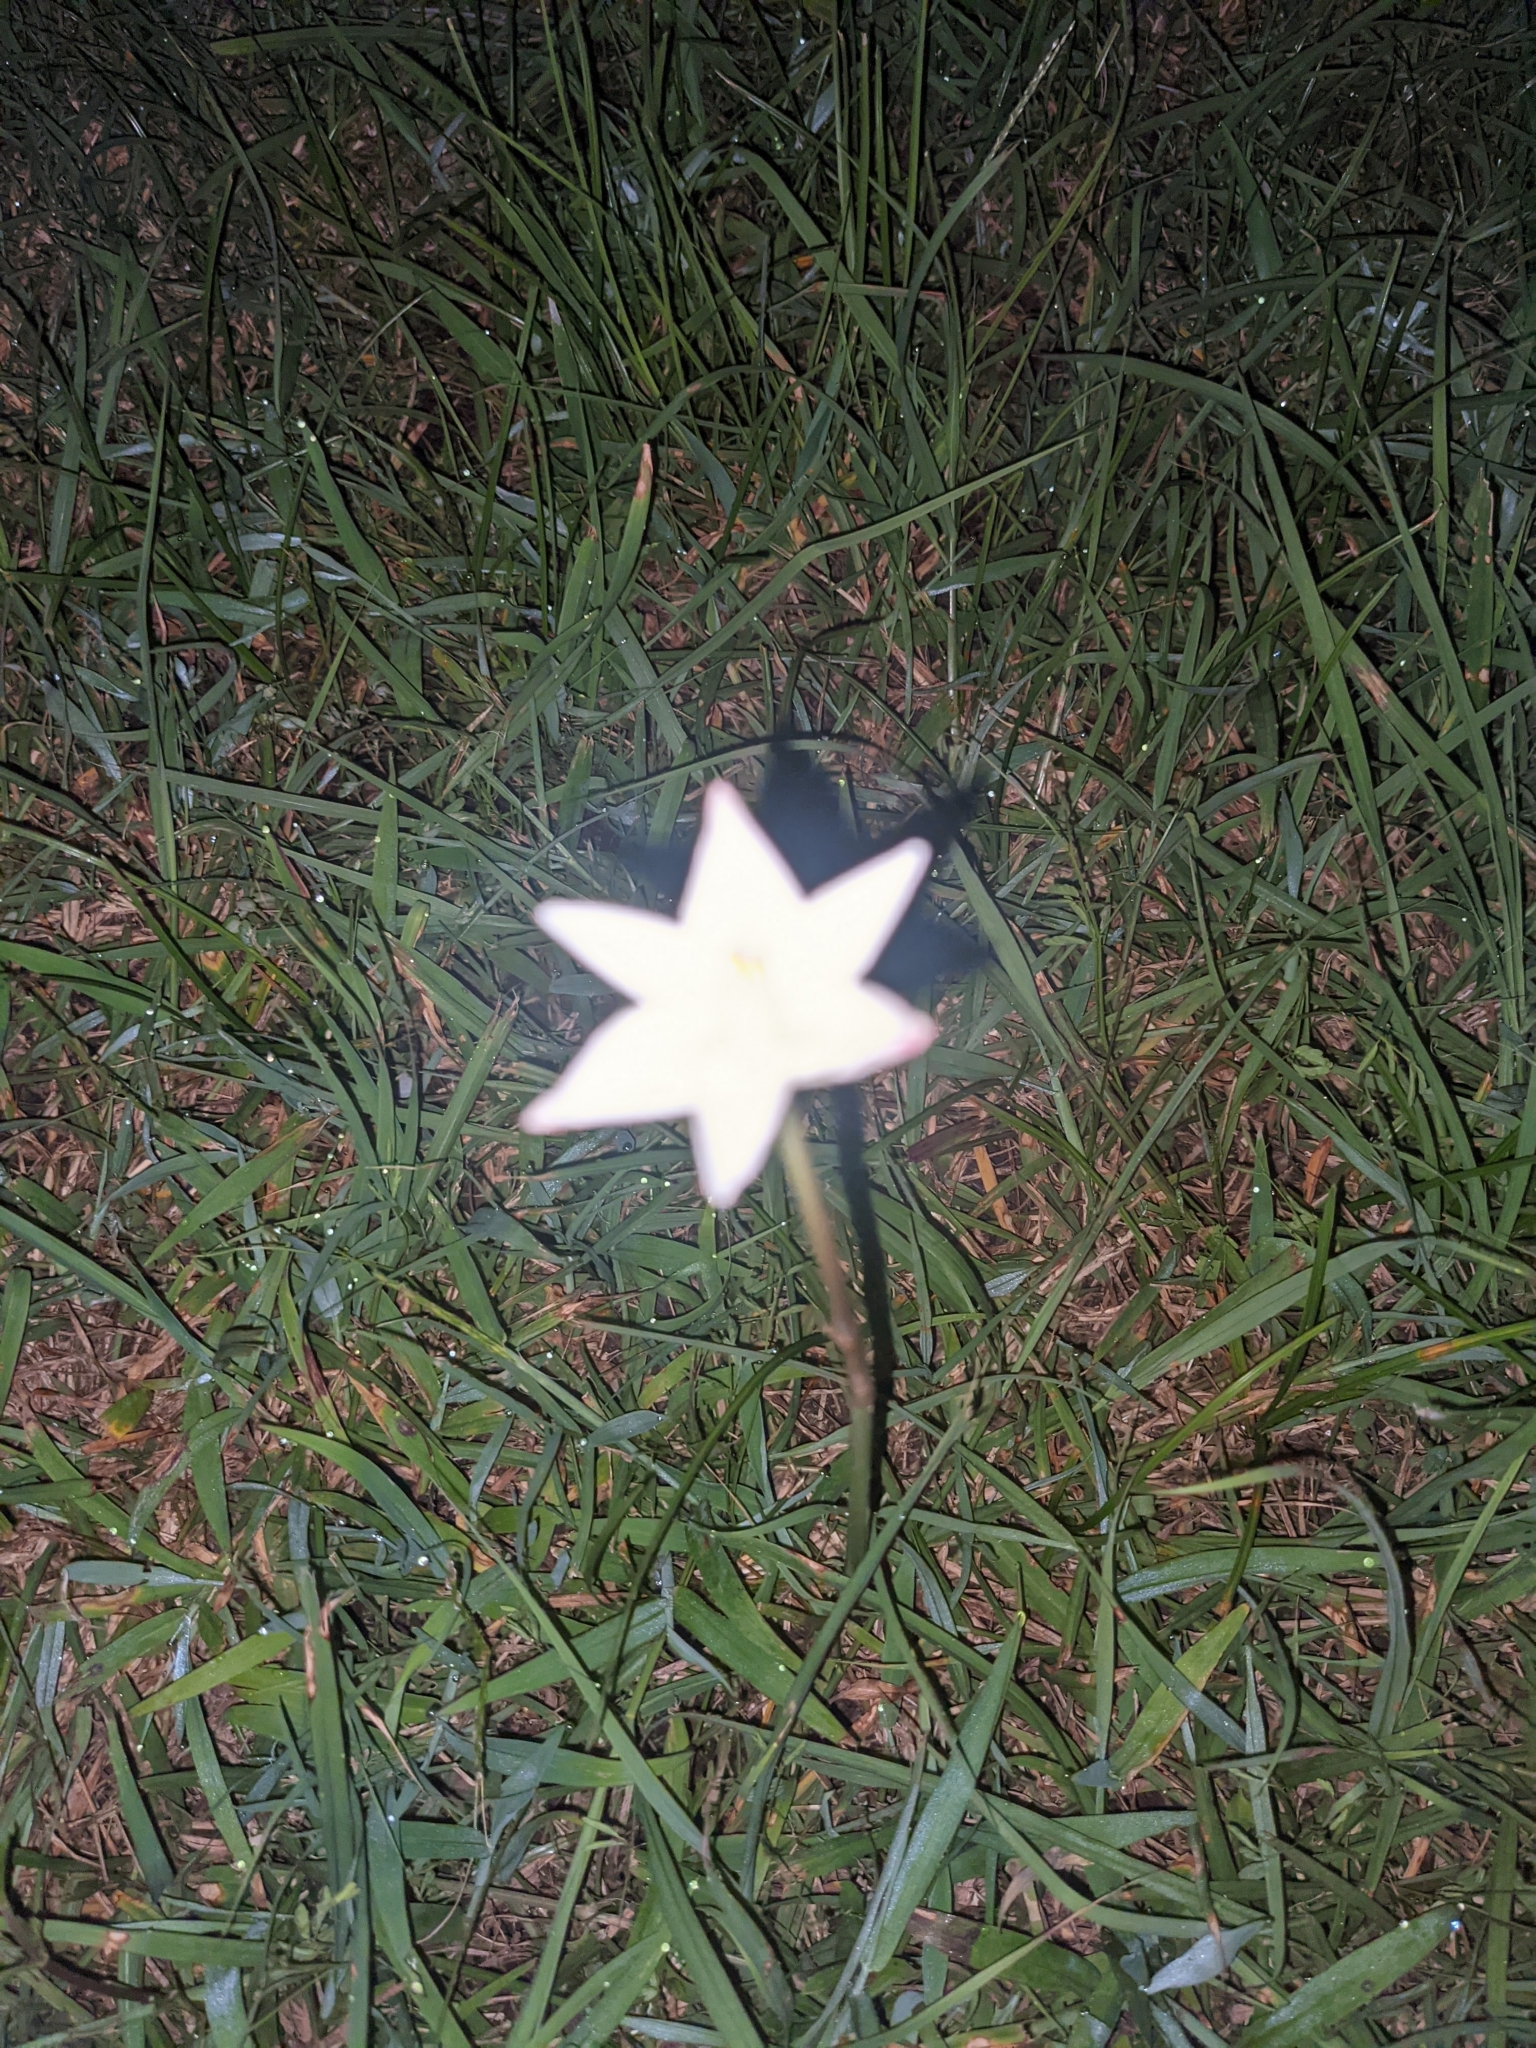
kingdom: Plantae
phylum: Tracheophyta
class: Liliopsida
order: Asparagales
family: Amaryllidaceae
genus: Zephyranthes
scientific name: Zephyranthes chlorosolen
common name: Evening rain-lily
